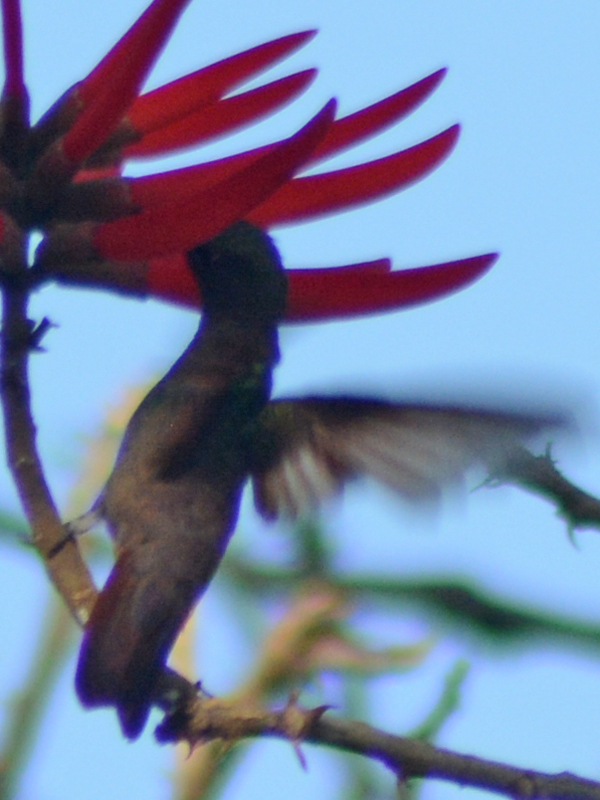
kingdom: Animalia
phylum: Chordata
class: Aves
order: Apodiformes
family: Trochilidae
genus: Saucerottia
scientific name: Saucerottia beryllina
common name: Berylline hummingbird
